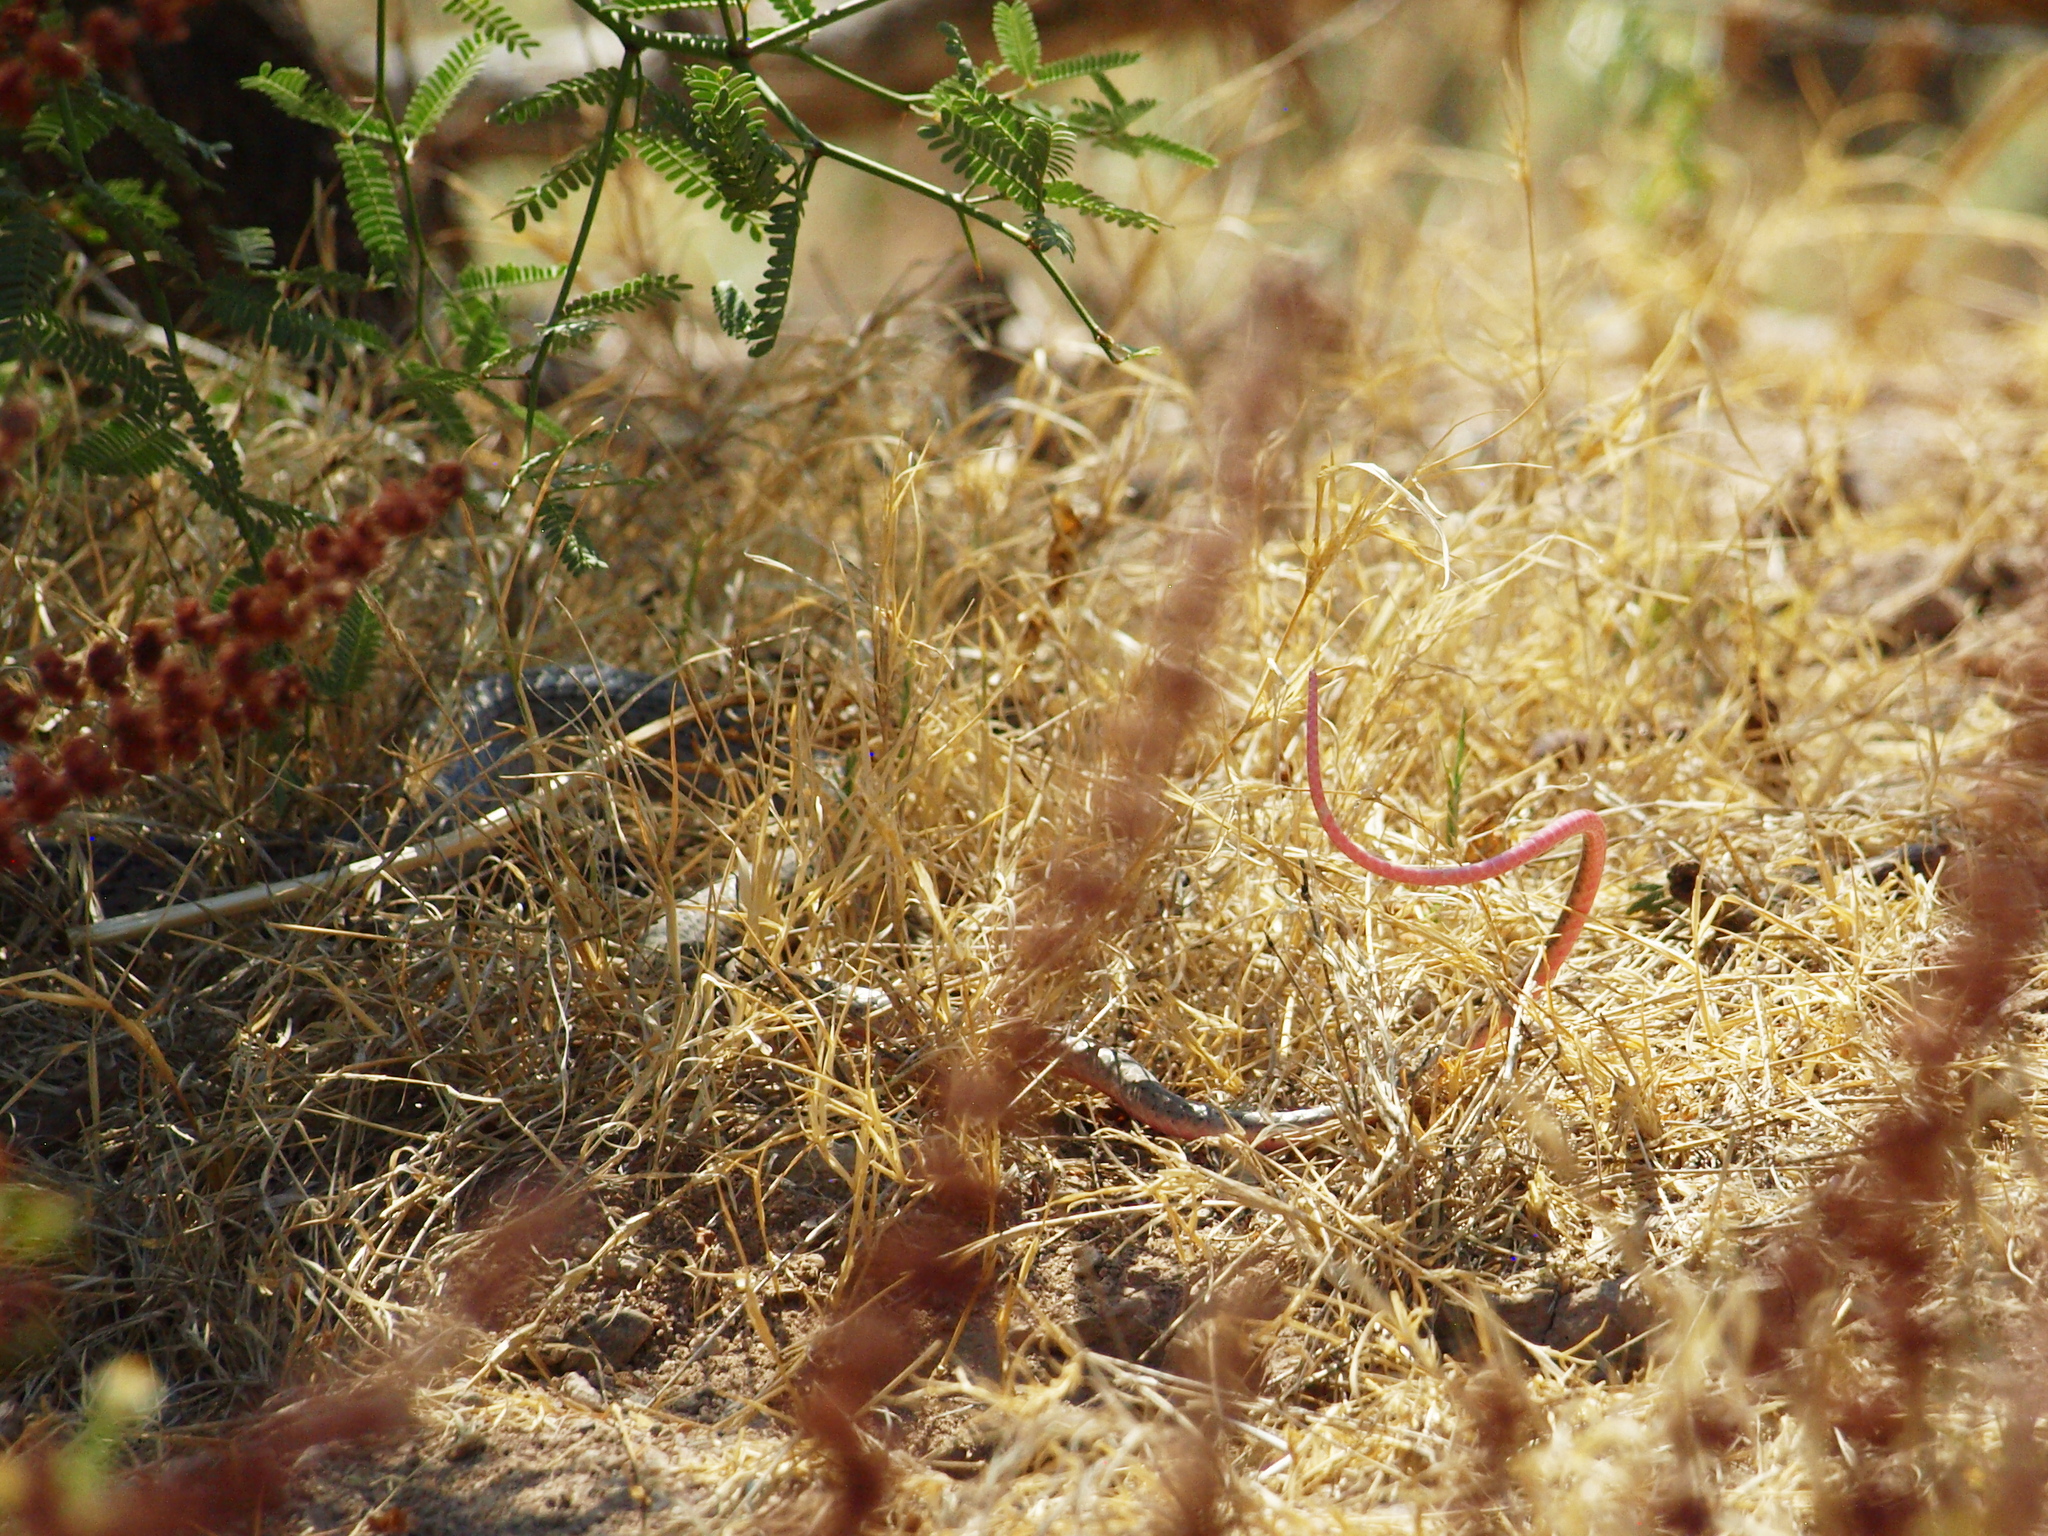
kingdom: Animalia
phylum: Chordata
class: Squamata
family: Colubridae
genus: Masticophis
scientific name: Masticophis flagellum
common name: Coachwhip
